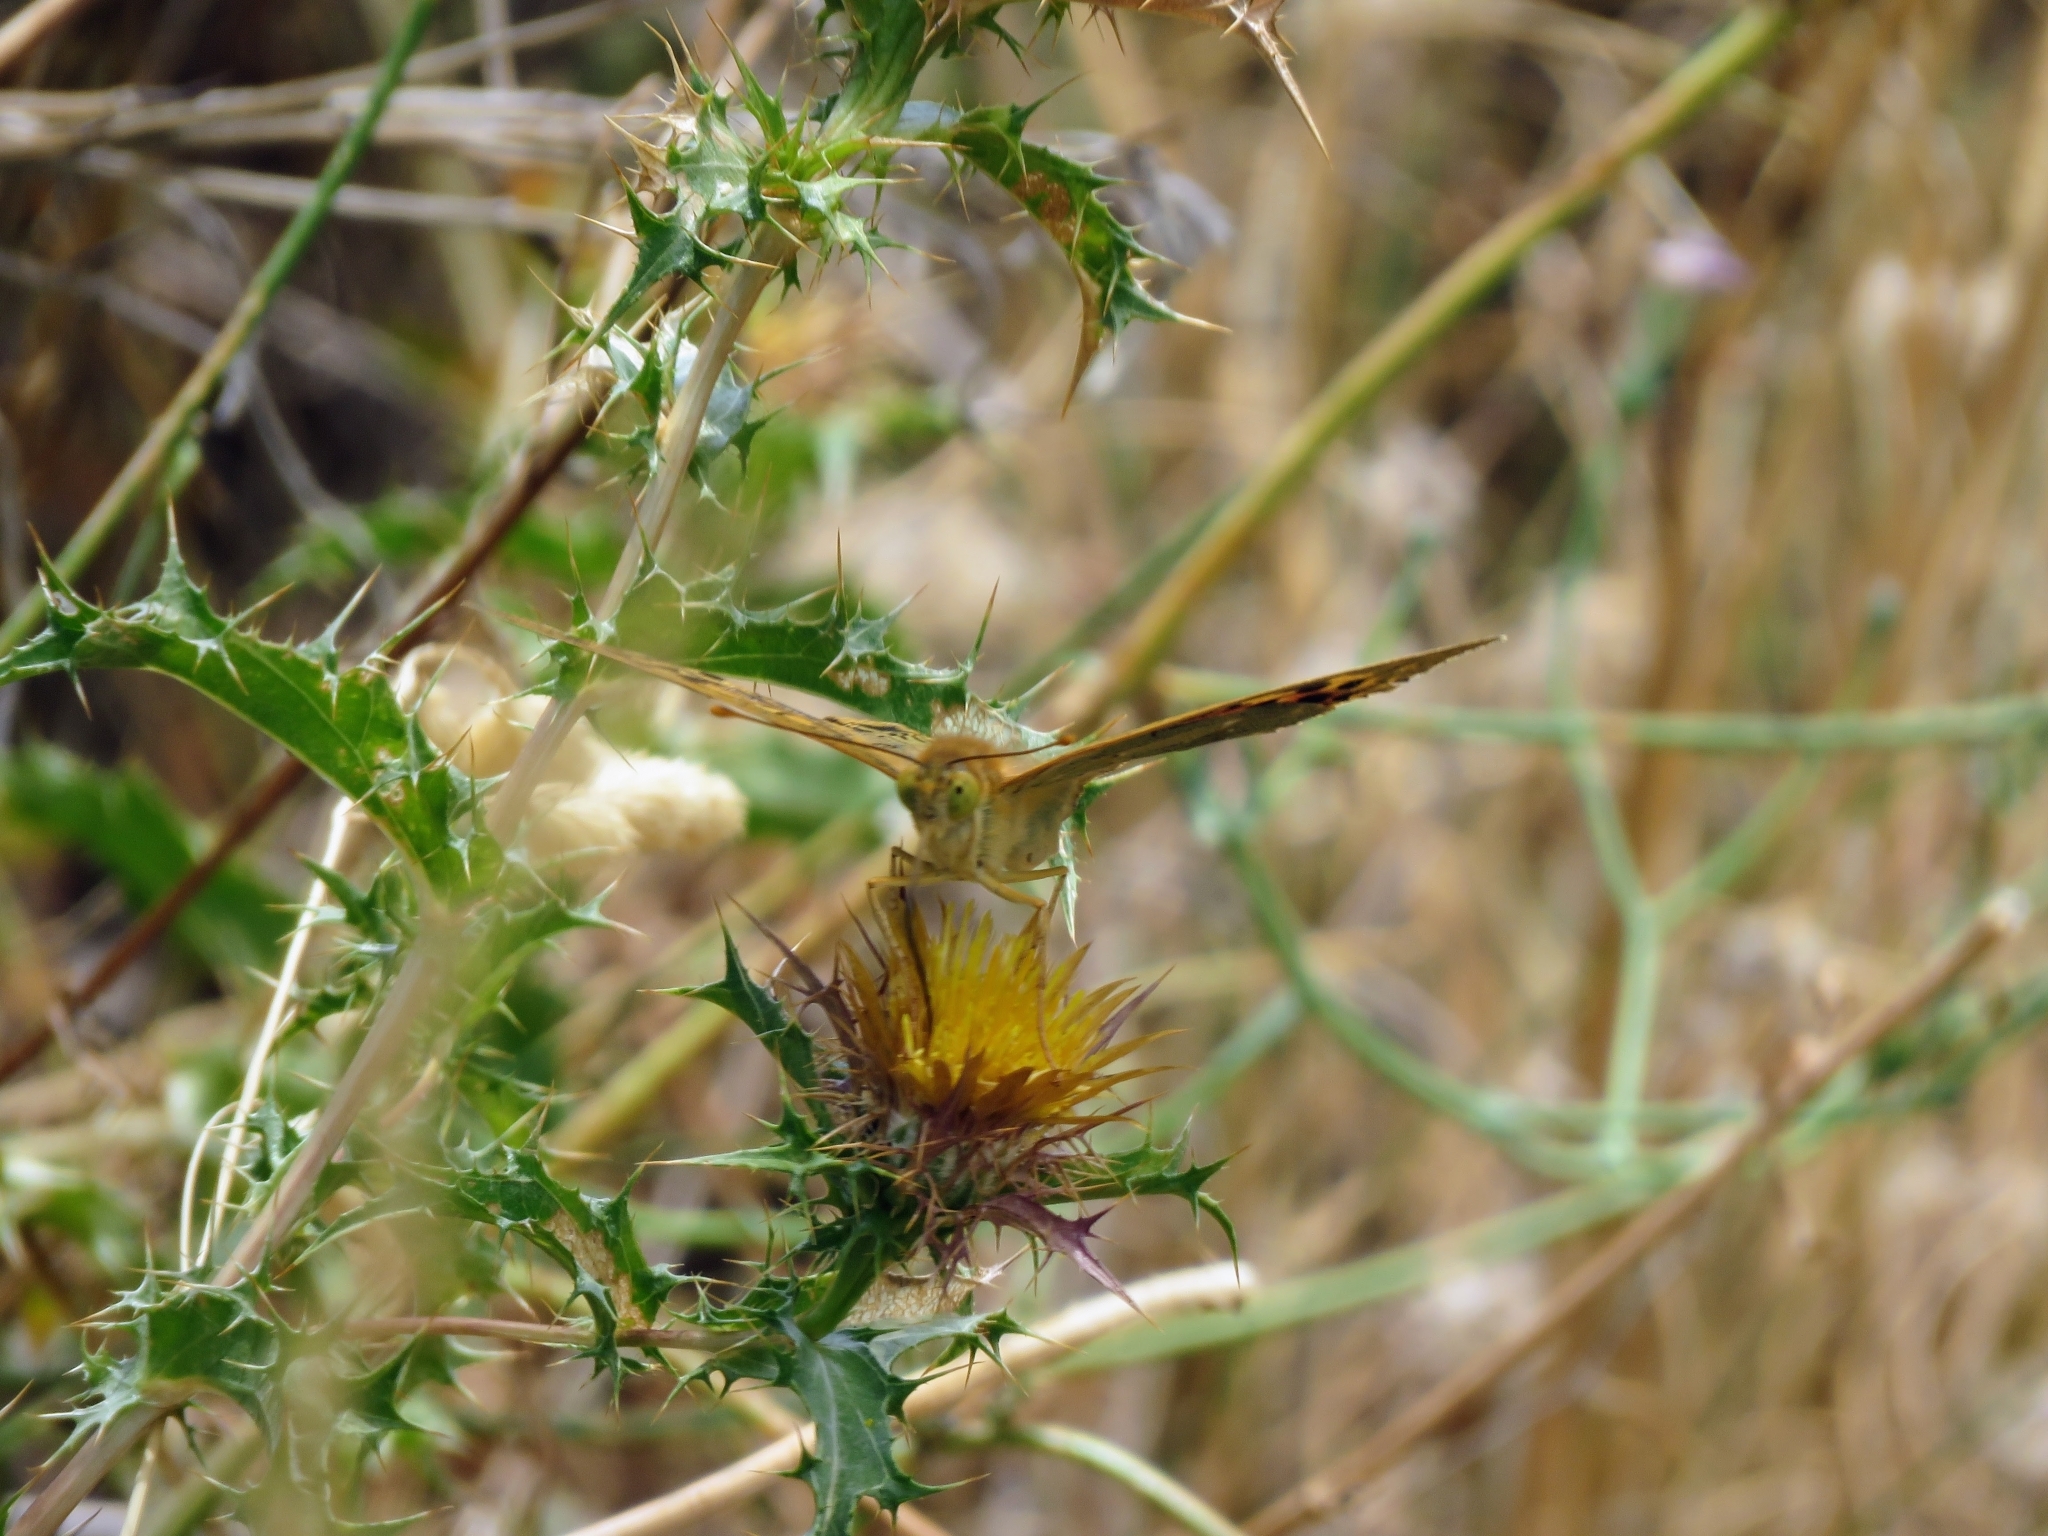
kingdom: Animalia
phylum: Arthropoda
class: Insecta
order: Lepidoptera
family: Nymphalidae
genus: Damora
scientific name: Damora pandora
